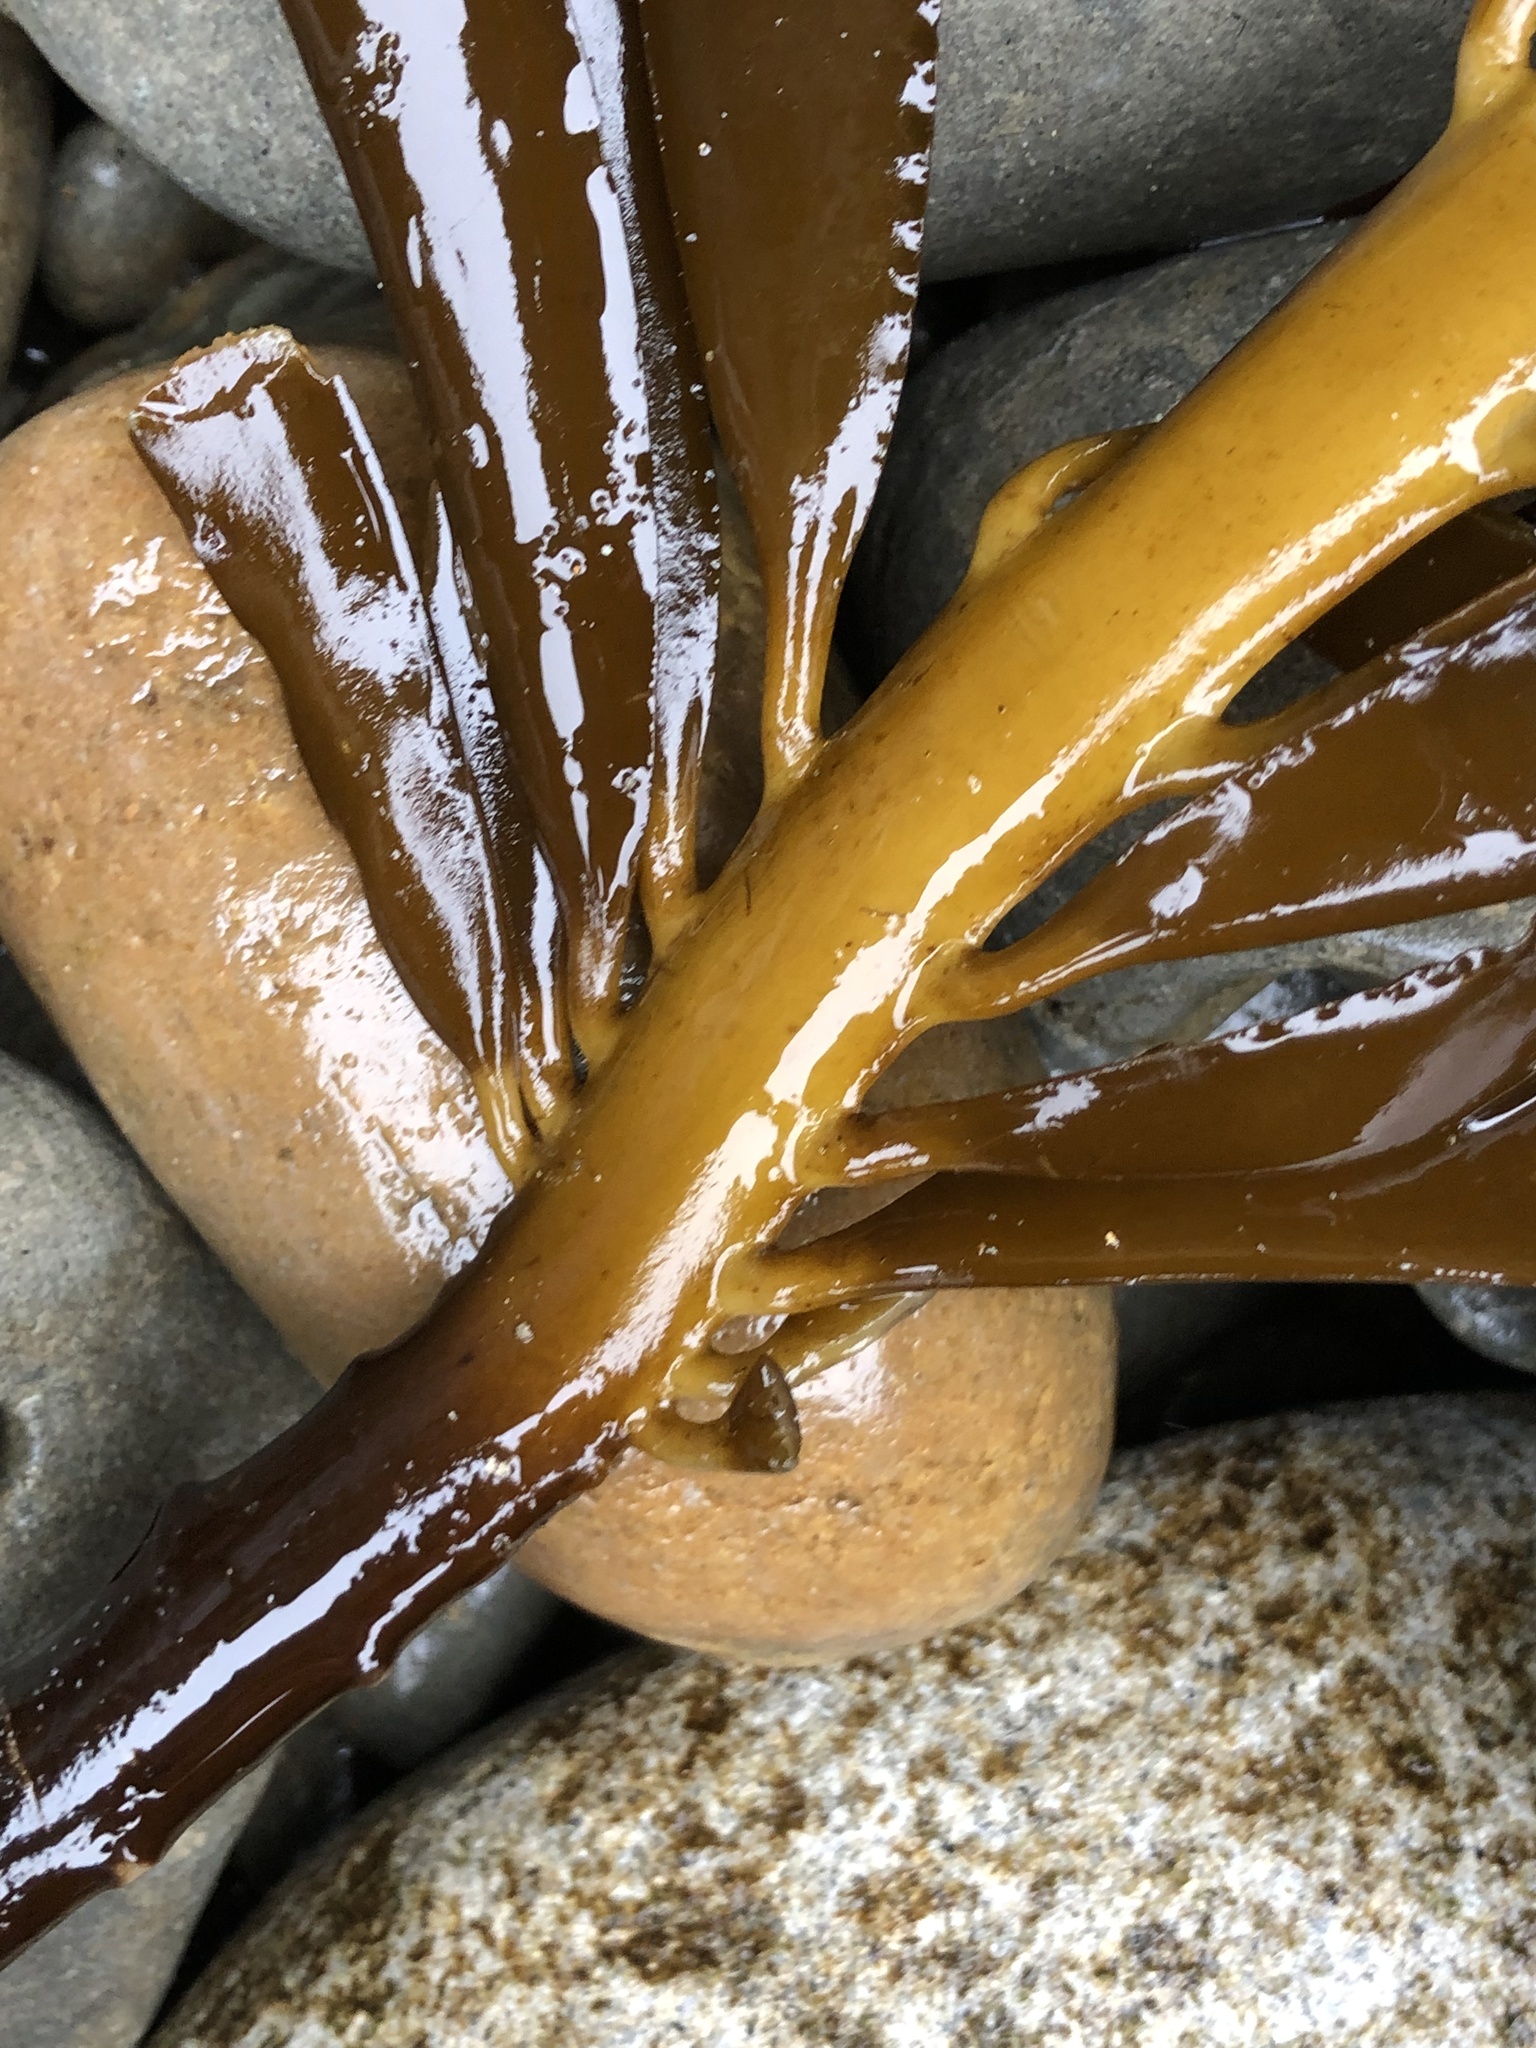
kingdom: Chromista
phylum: Ochrophyta
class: Phaeophyceae
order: Laminariales
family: Alariaceae
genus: Pterygophora
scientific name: Pterygophora californica
